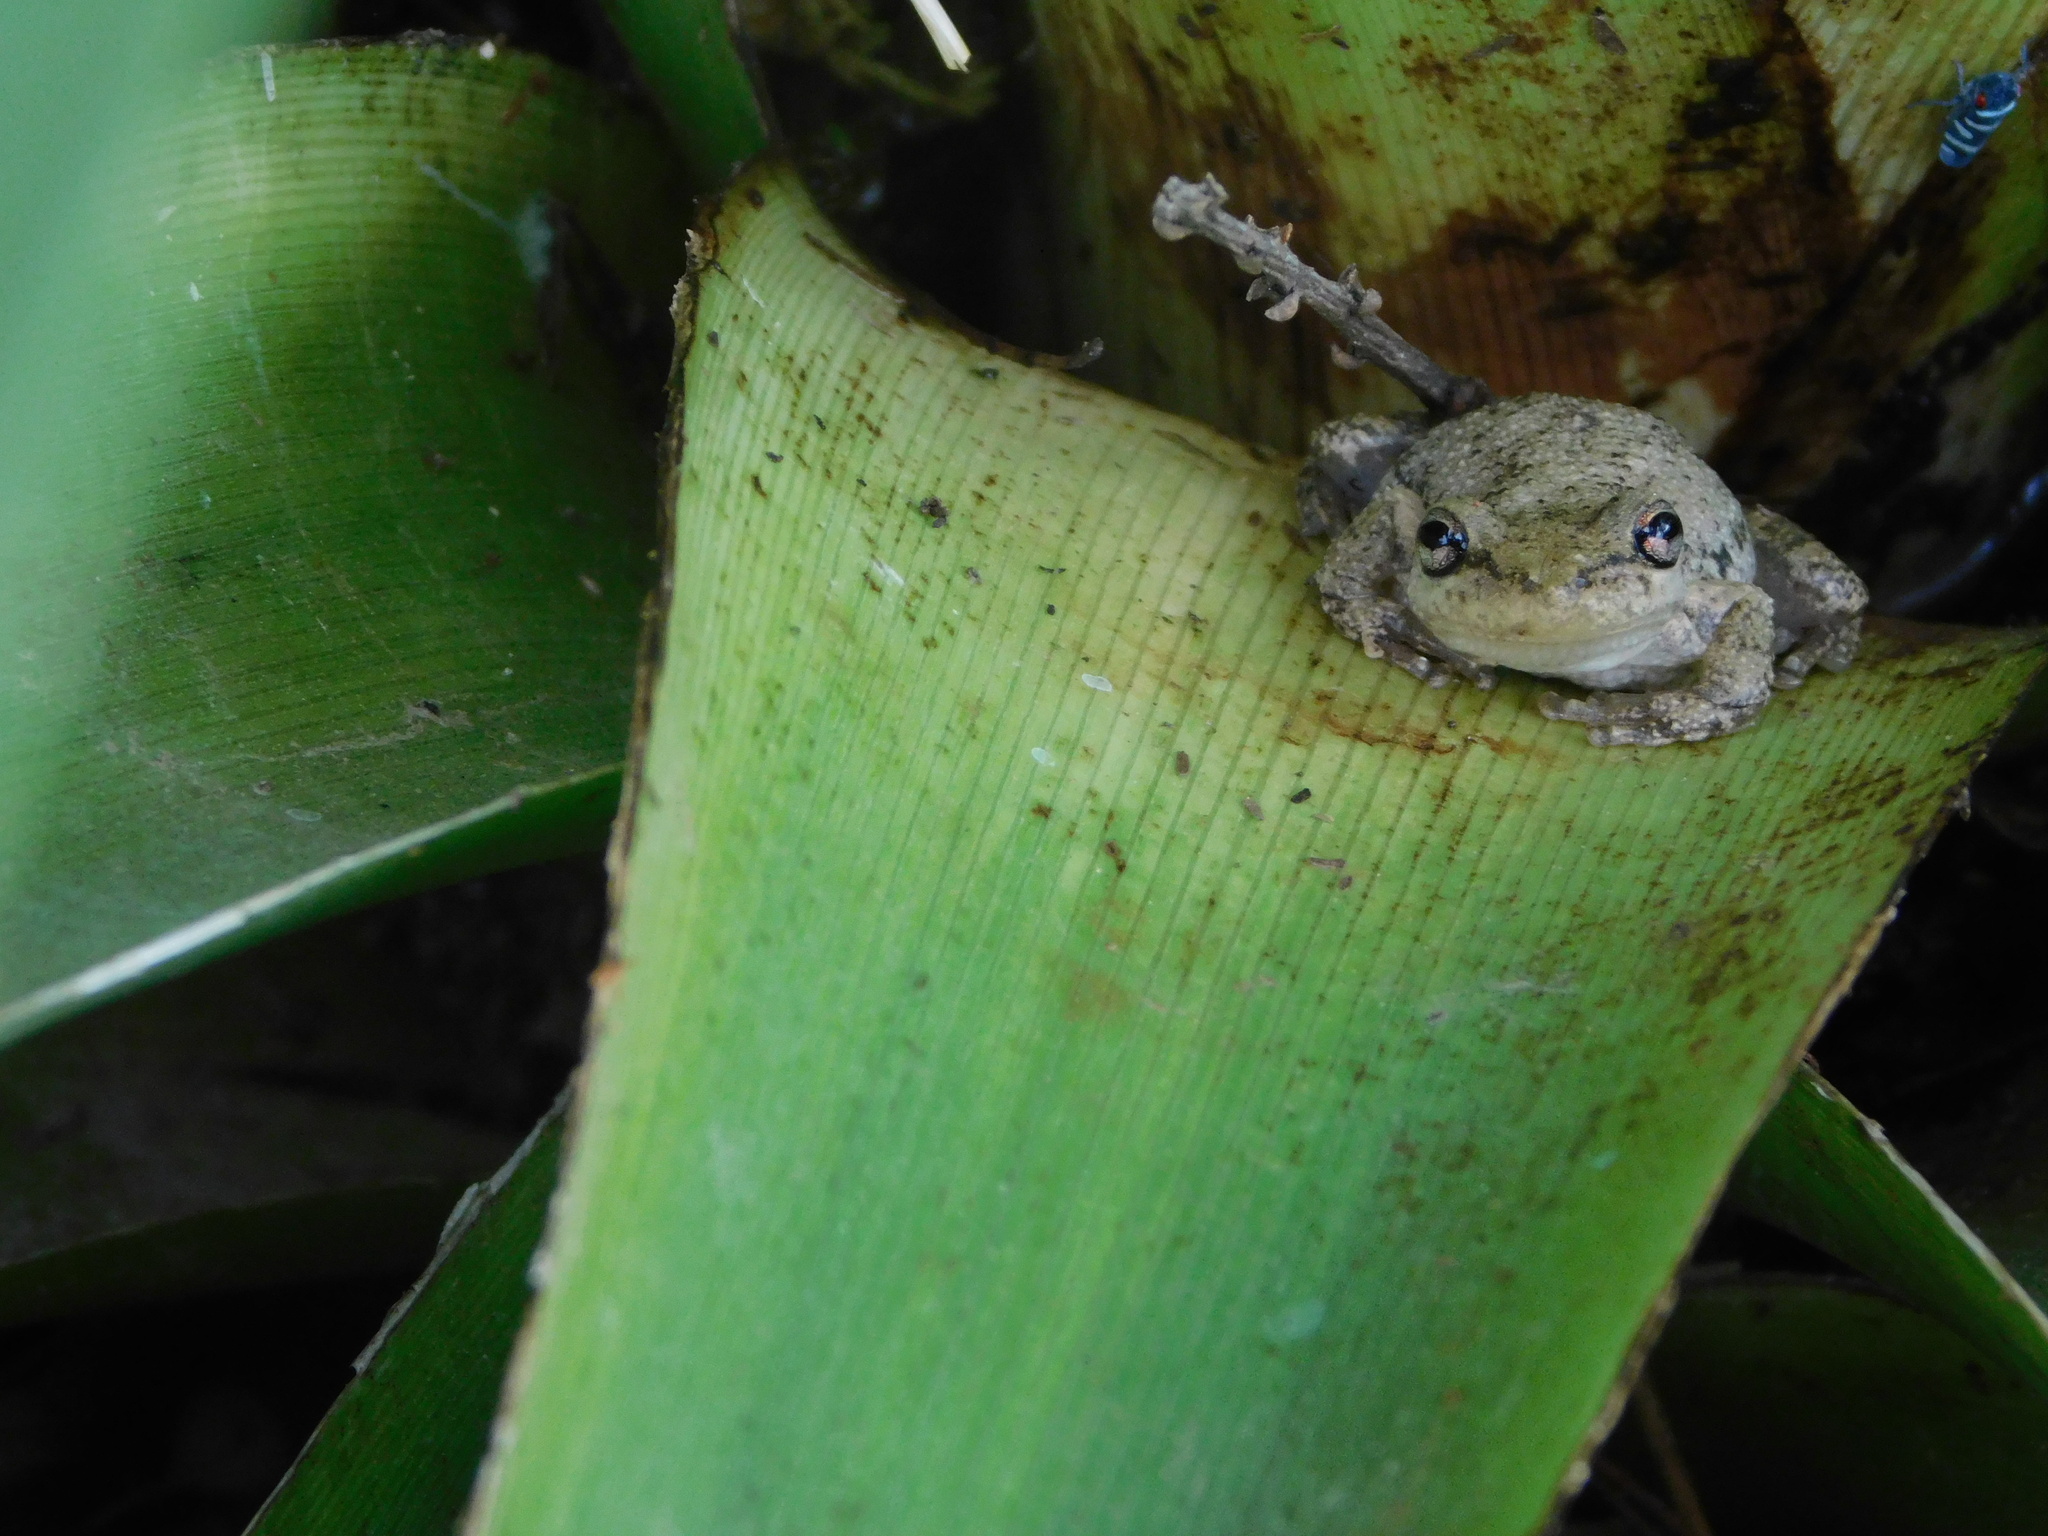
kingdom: Animalia
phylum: Chordata
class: Amphibia
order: Anura
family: Hylidae
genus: Scinax
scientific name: Scinax nasicus
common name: Lesser snouted treefrog
